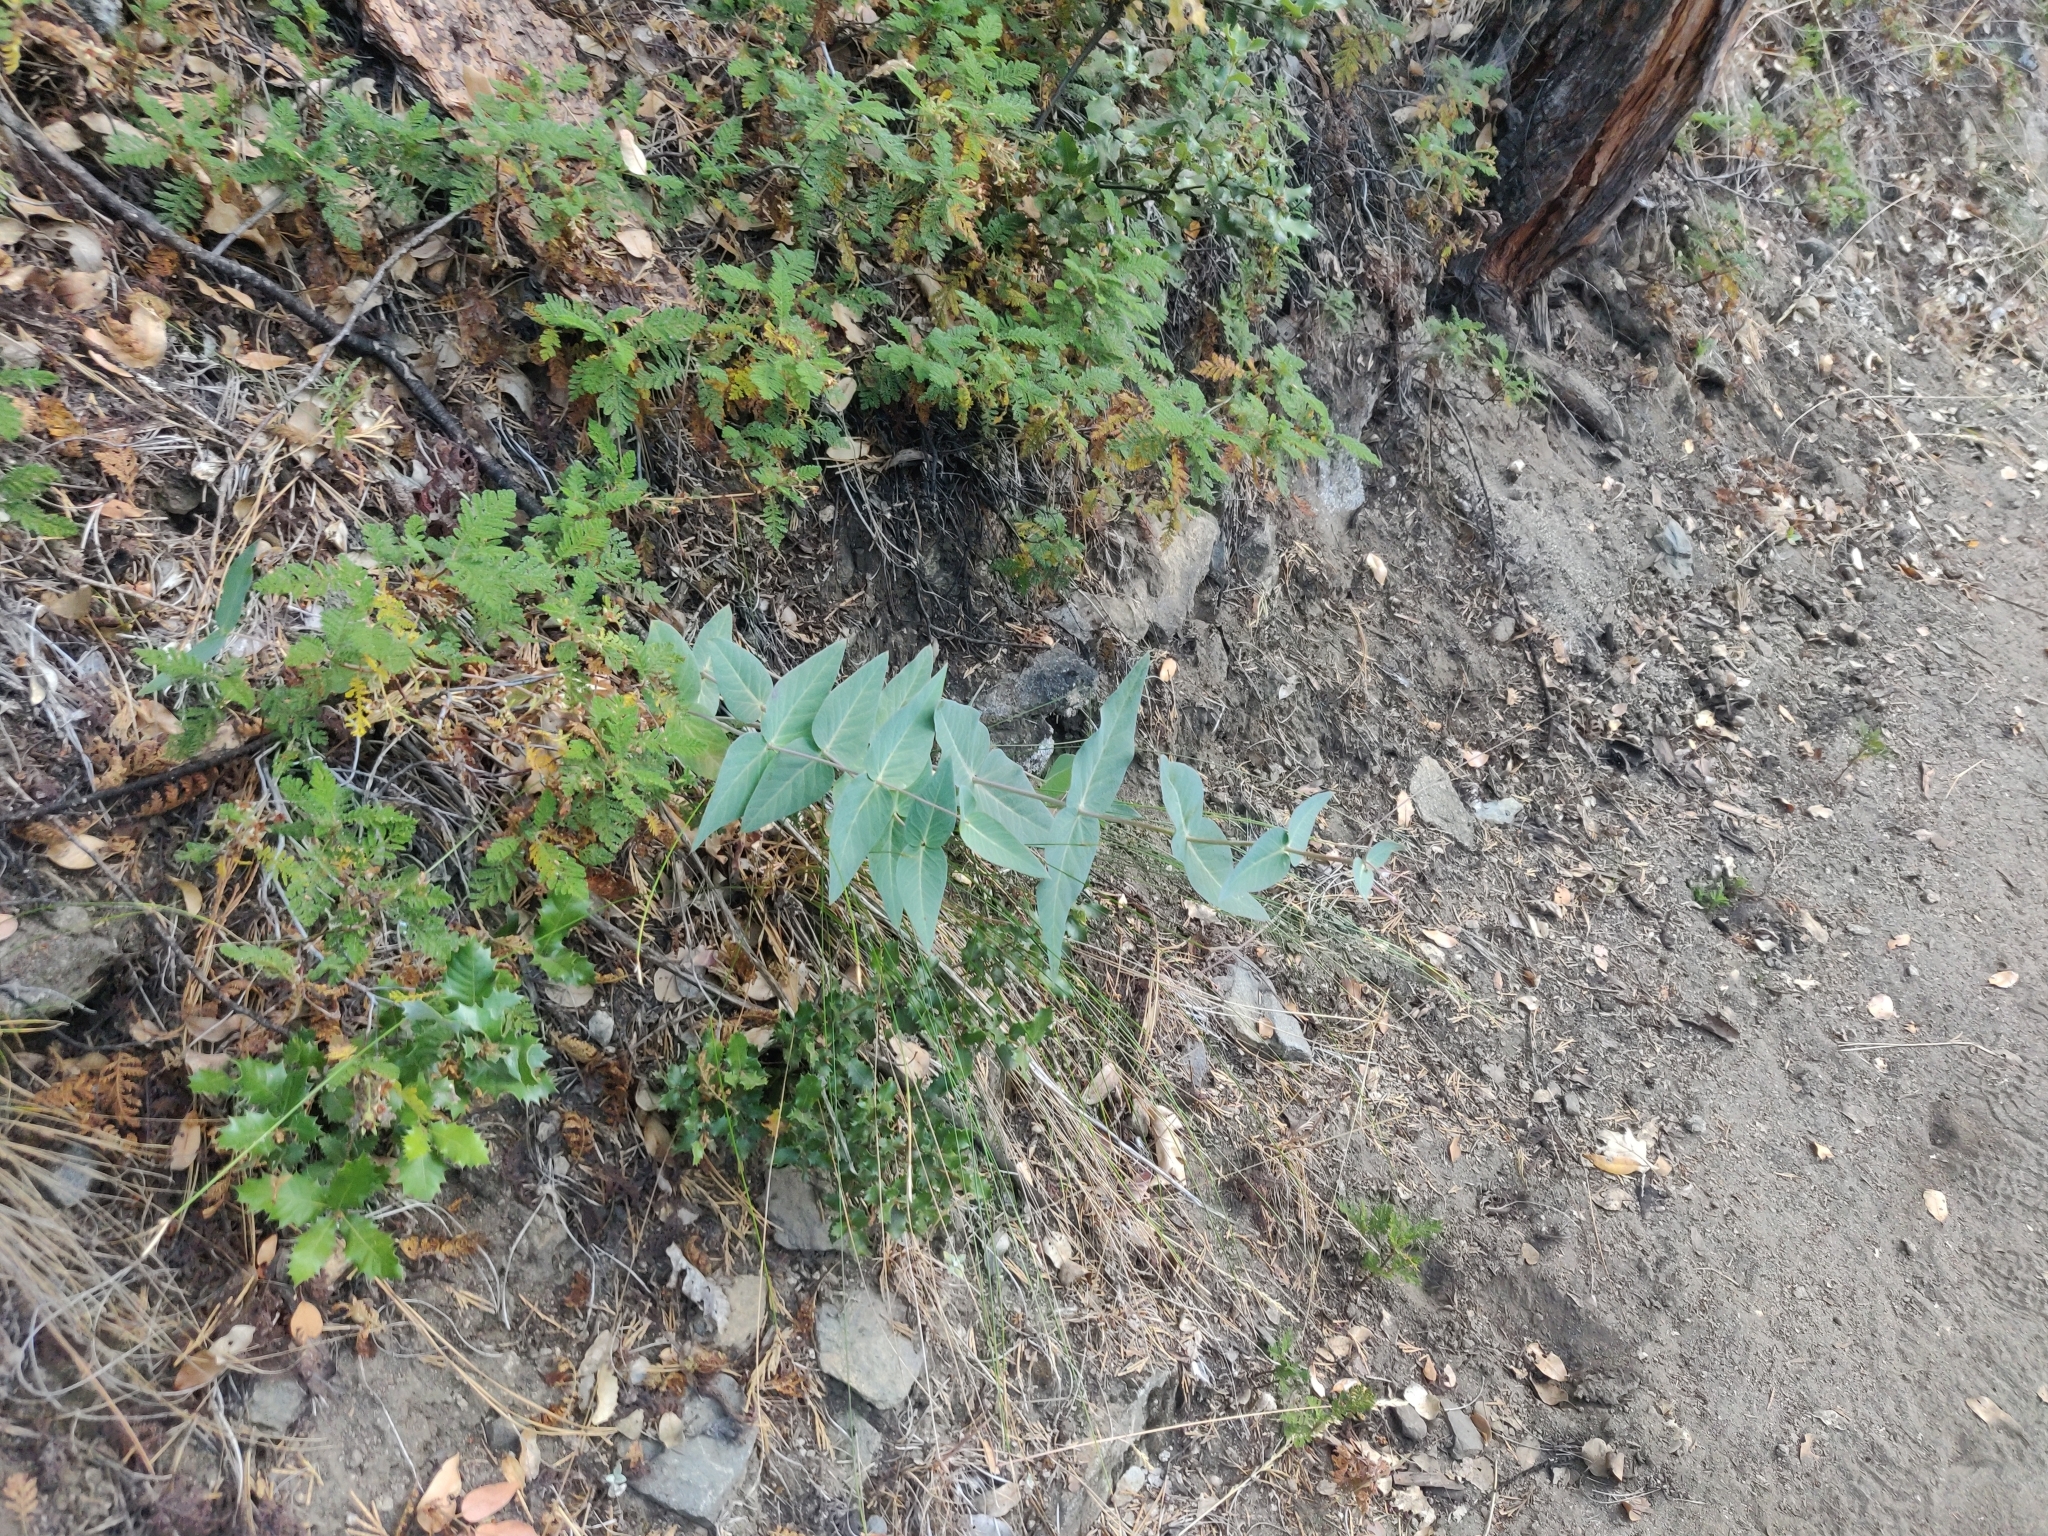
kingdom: Plantae
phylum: Tracheophyta
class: Magnoliopsida
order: Gentianales
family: Apocynaceae
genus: Asclepias
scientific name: Asclepias cordifolia
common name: Purple milkweed
